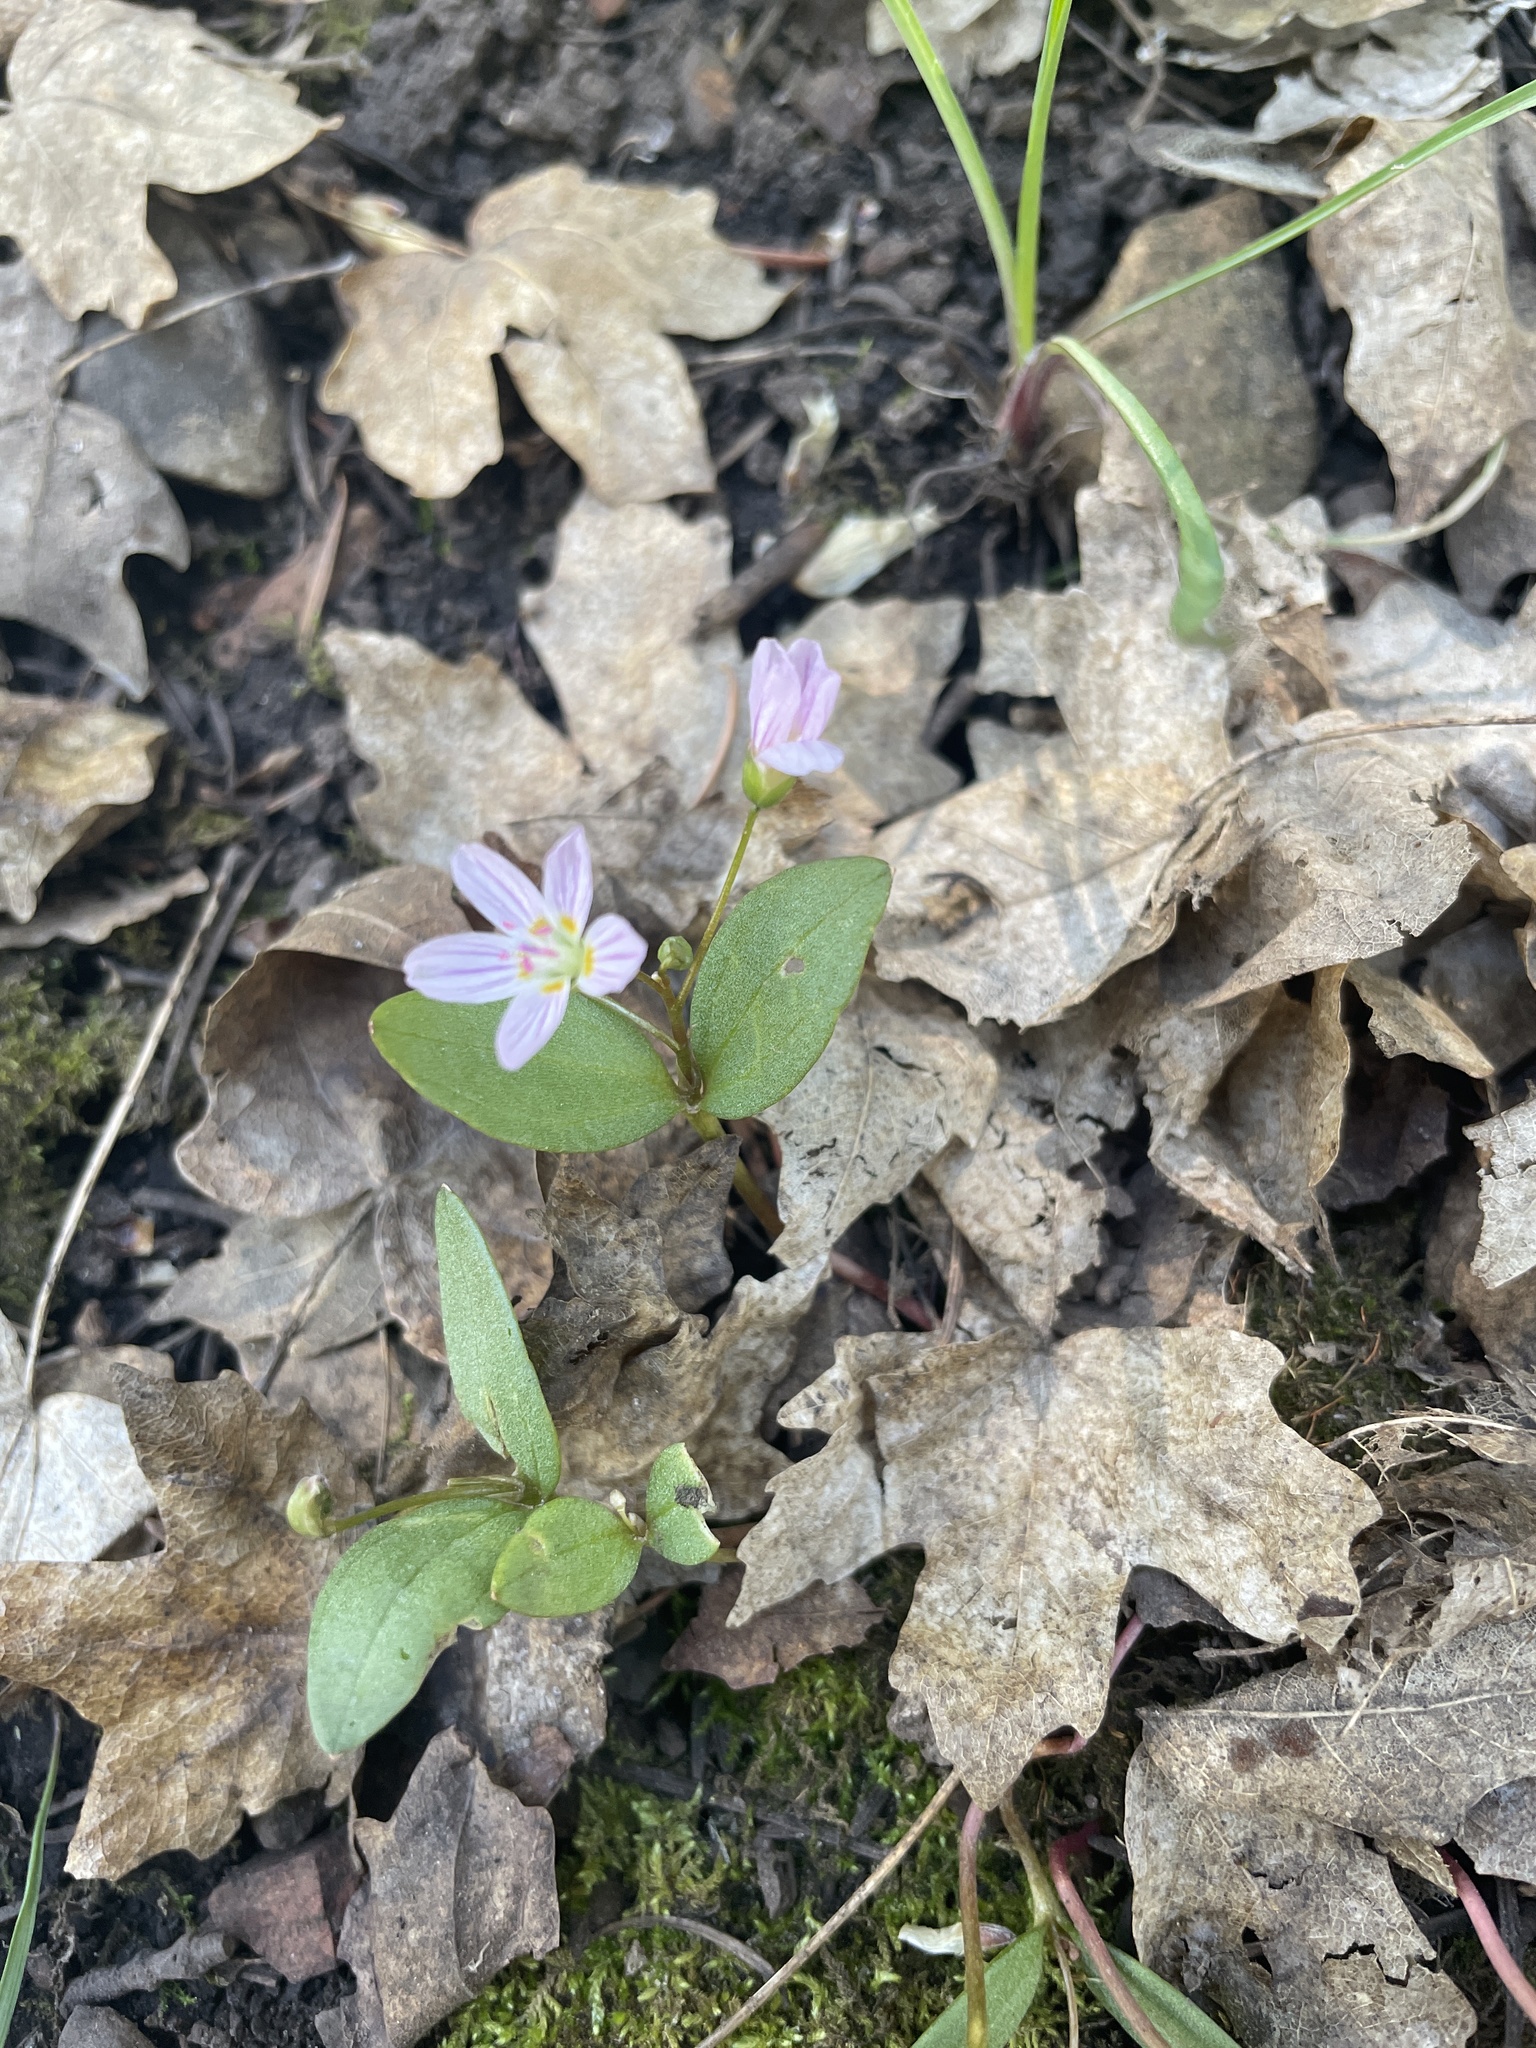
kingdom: Plantae
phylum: Tracheophyta
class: Magnoliopsida
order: Caryophyllales
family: Montiaceae
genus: Claytonia
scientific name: Claytonia lanceolata
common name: Western spring-beauty
